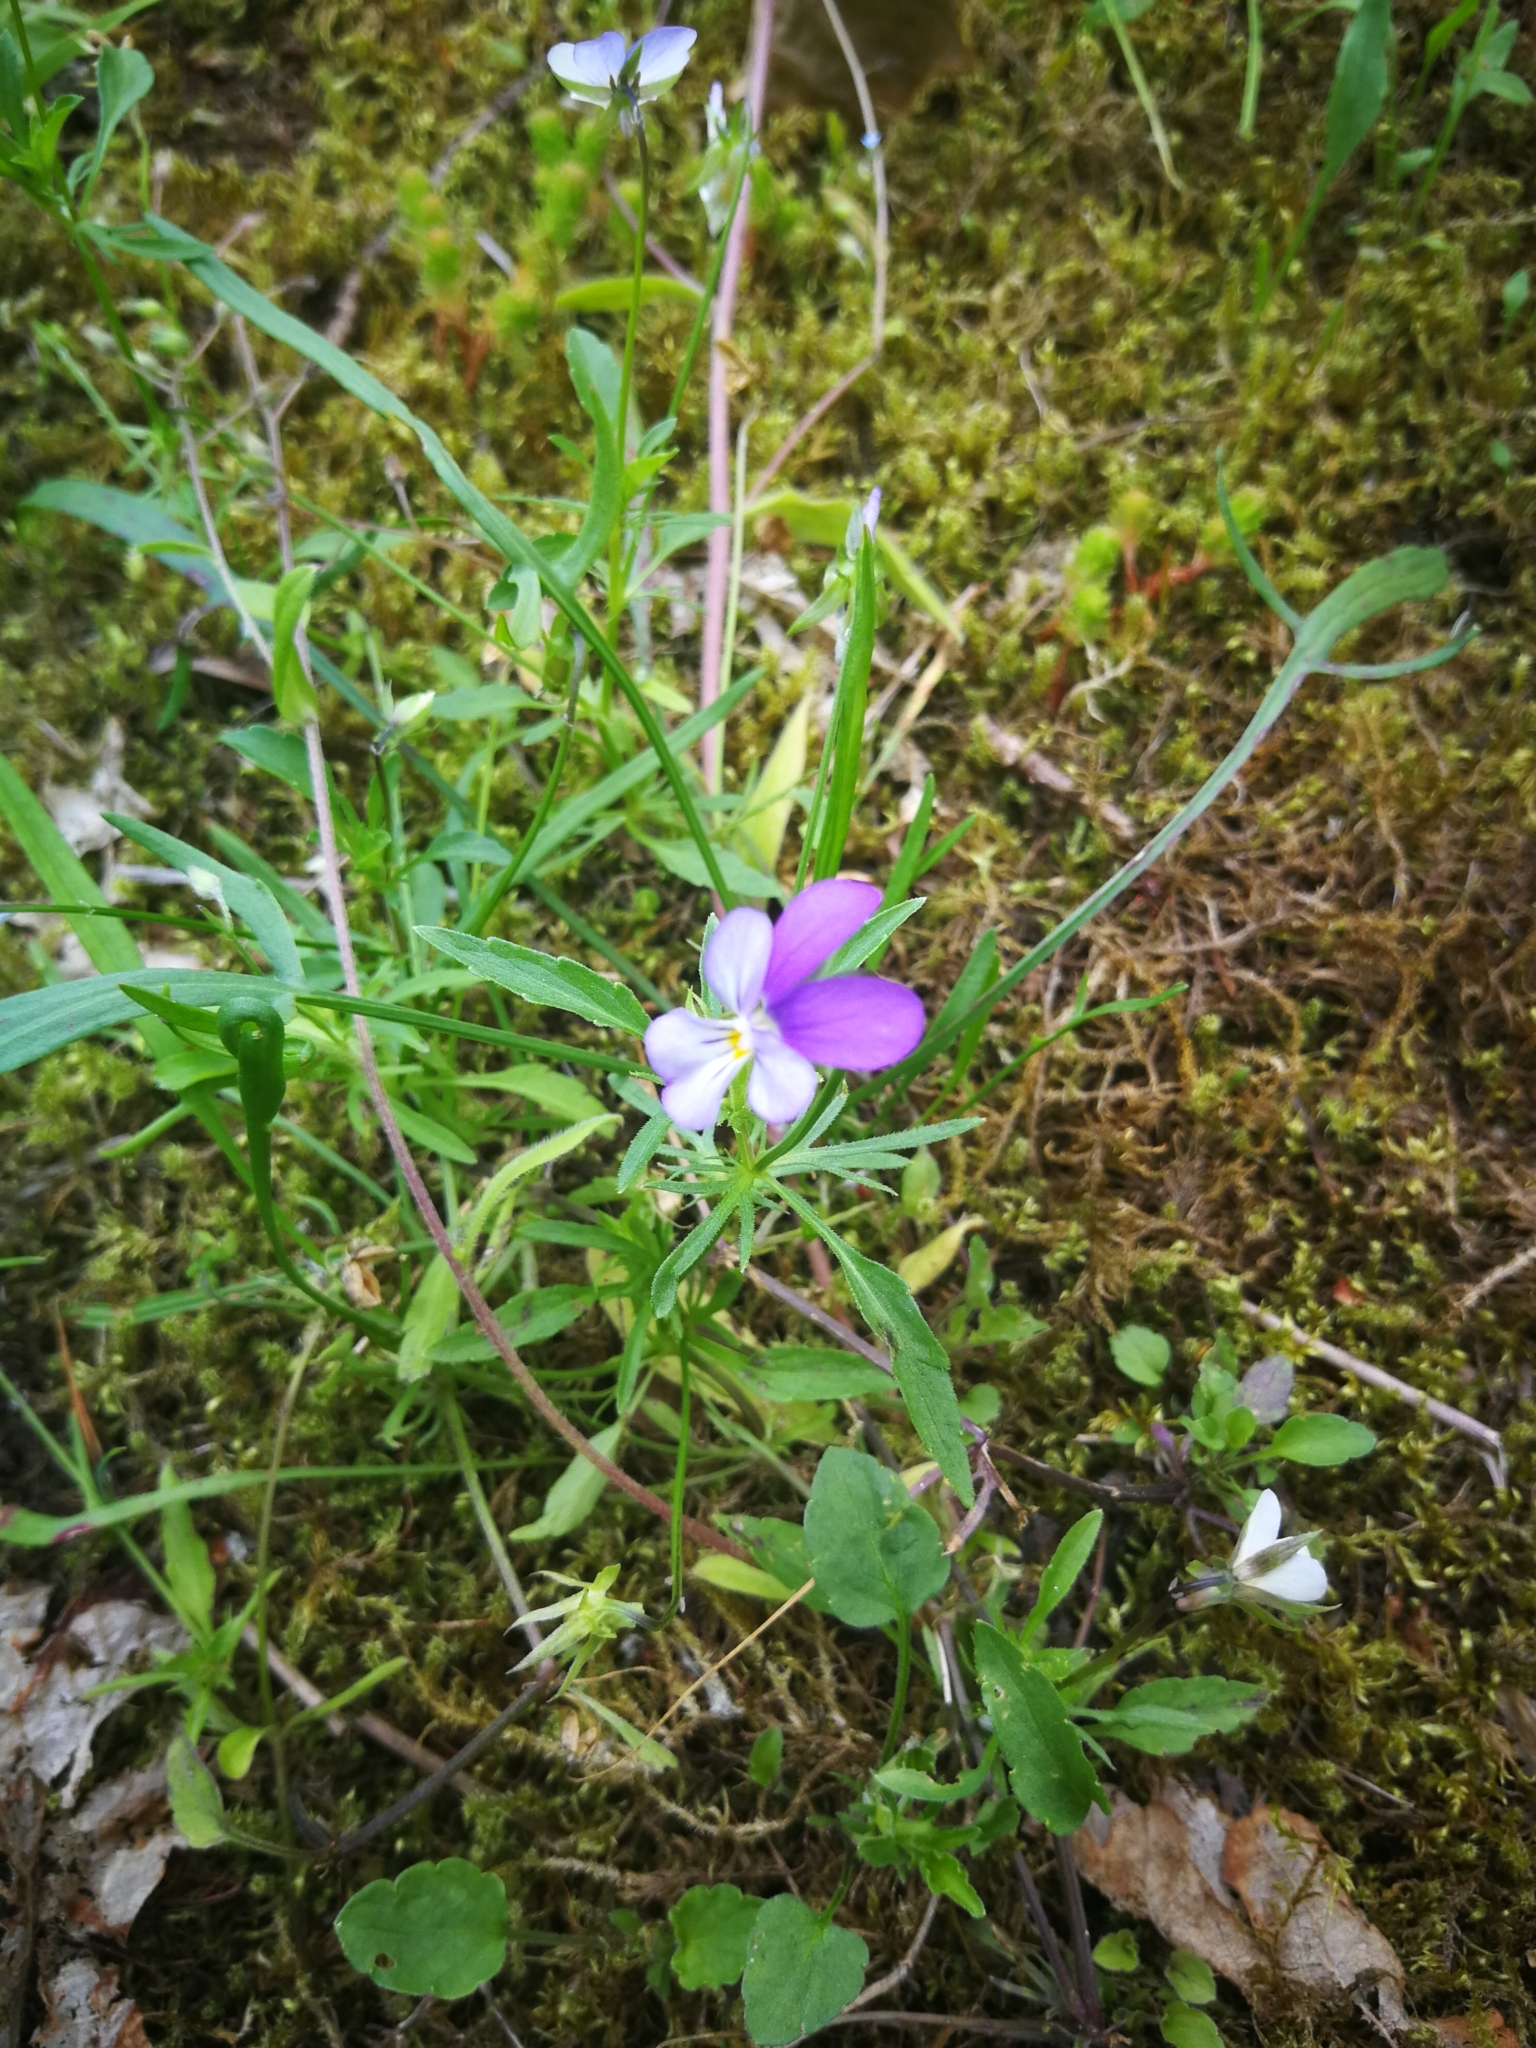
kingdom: Plantae
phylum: Tracheophyta
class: Magnoliopsida
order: Malpighiales
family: Violaceae
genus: Viola
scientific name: Viola tricolor
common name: Pansy
